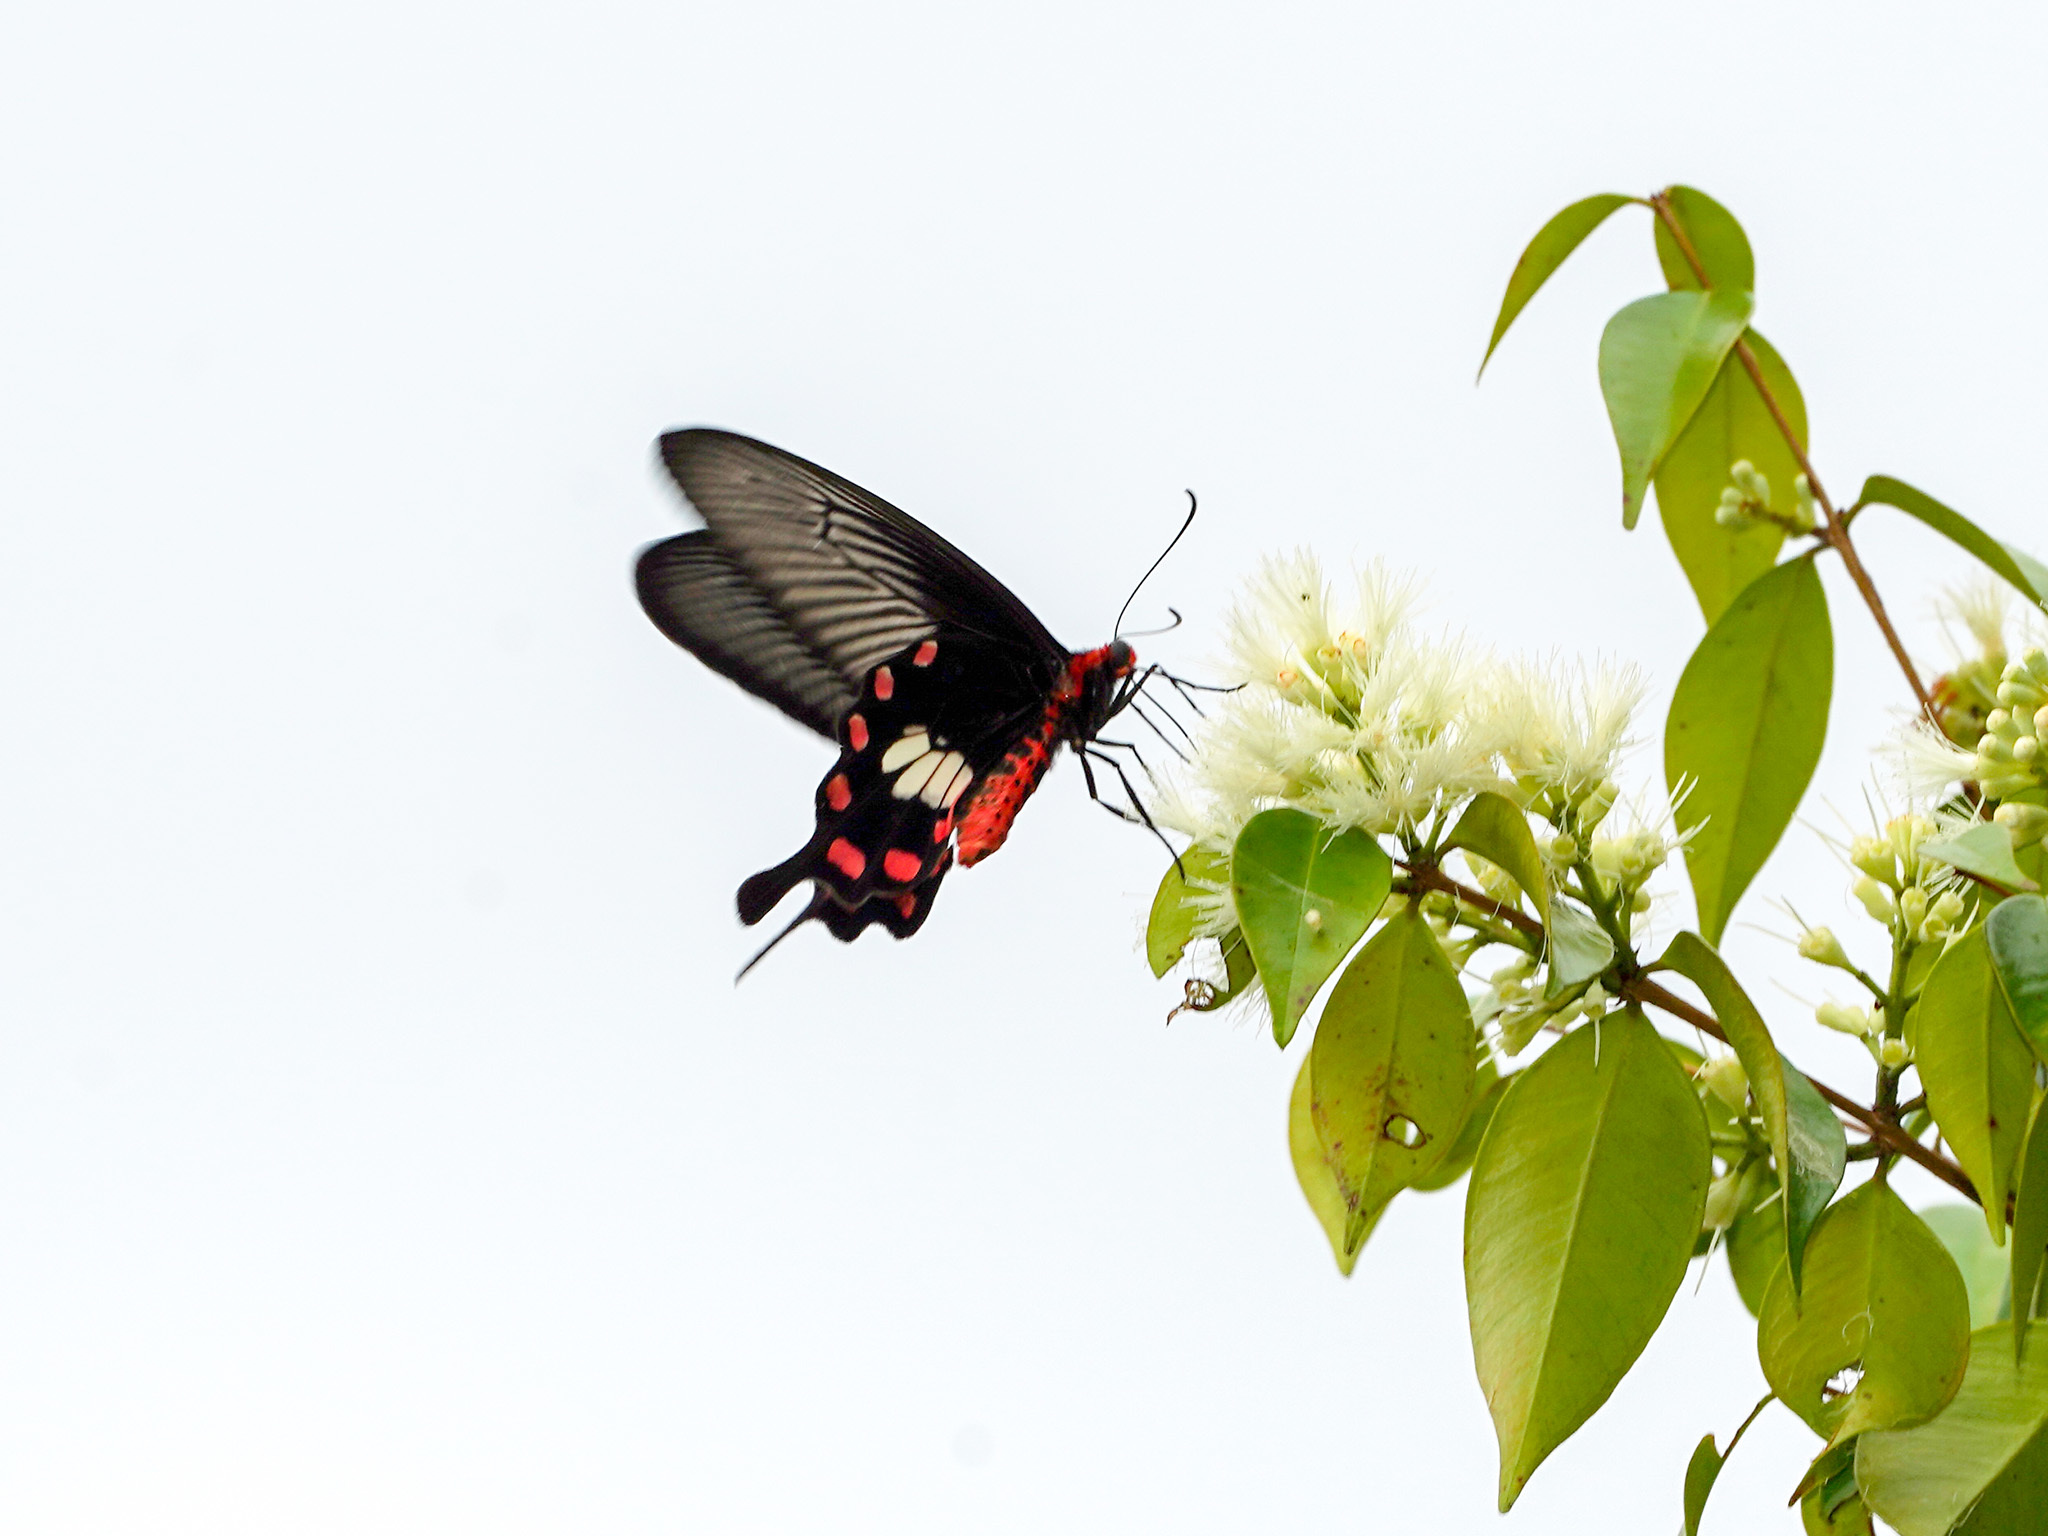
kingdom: Animalia
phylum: Arthropoda
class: Insecta
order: Lepidoptera
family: Papilionidae
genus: Pachliopta
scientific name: Pachliopta aristolochiae
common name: Common rose
